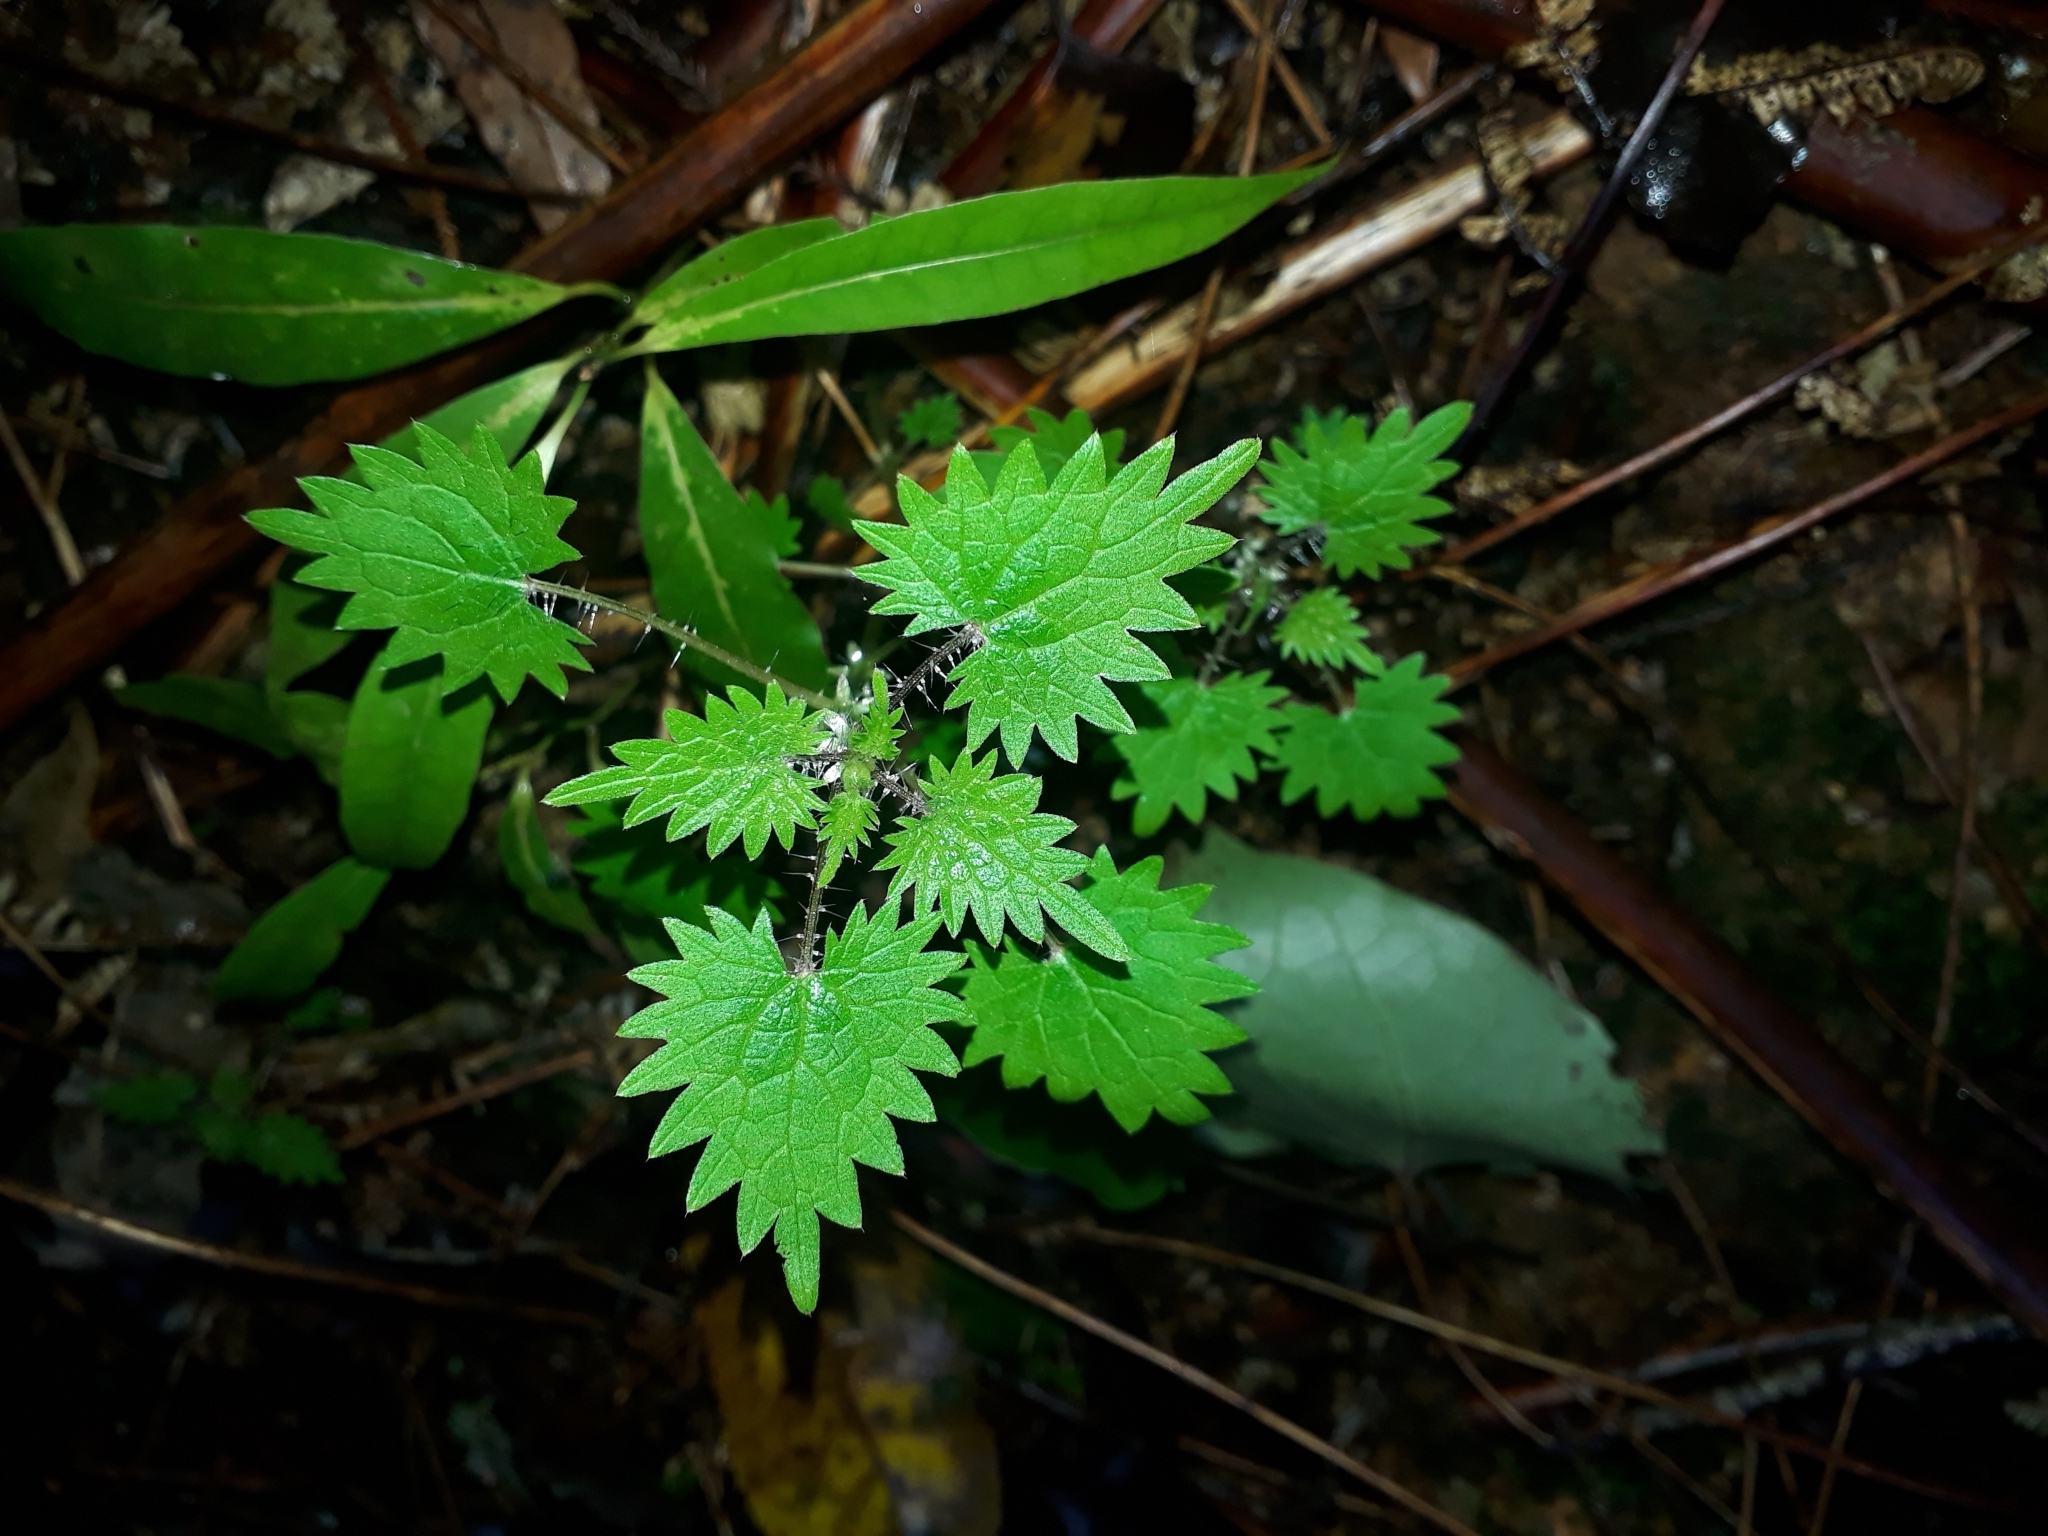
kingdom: Plantae
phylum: Tracheophyta
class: Magnoliopsida
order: Rosales
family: Urticaceae
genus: Urtica
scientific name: Urtica sykesii
